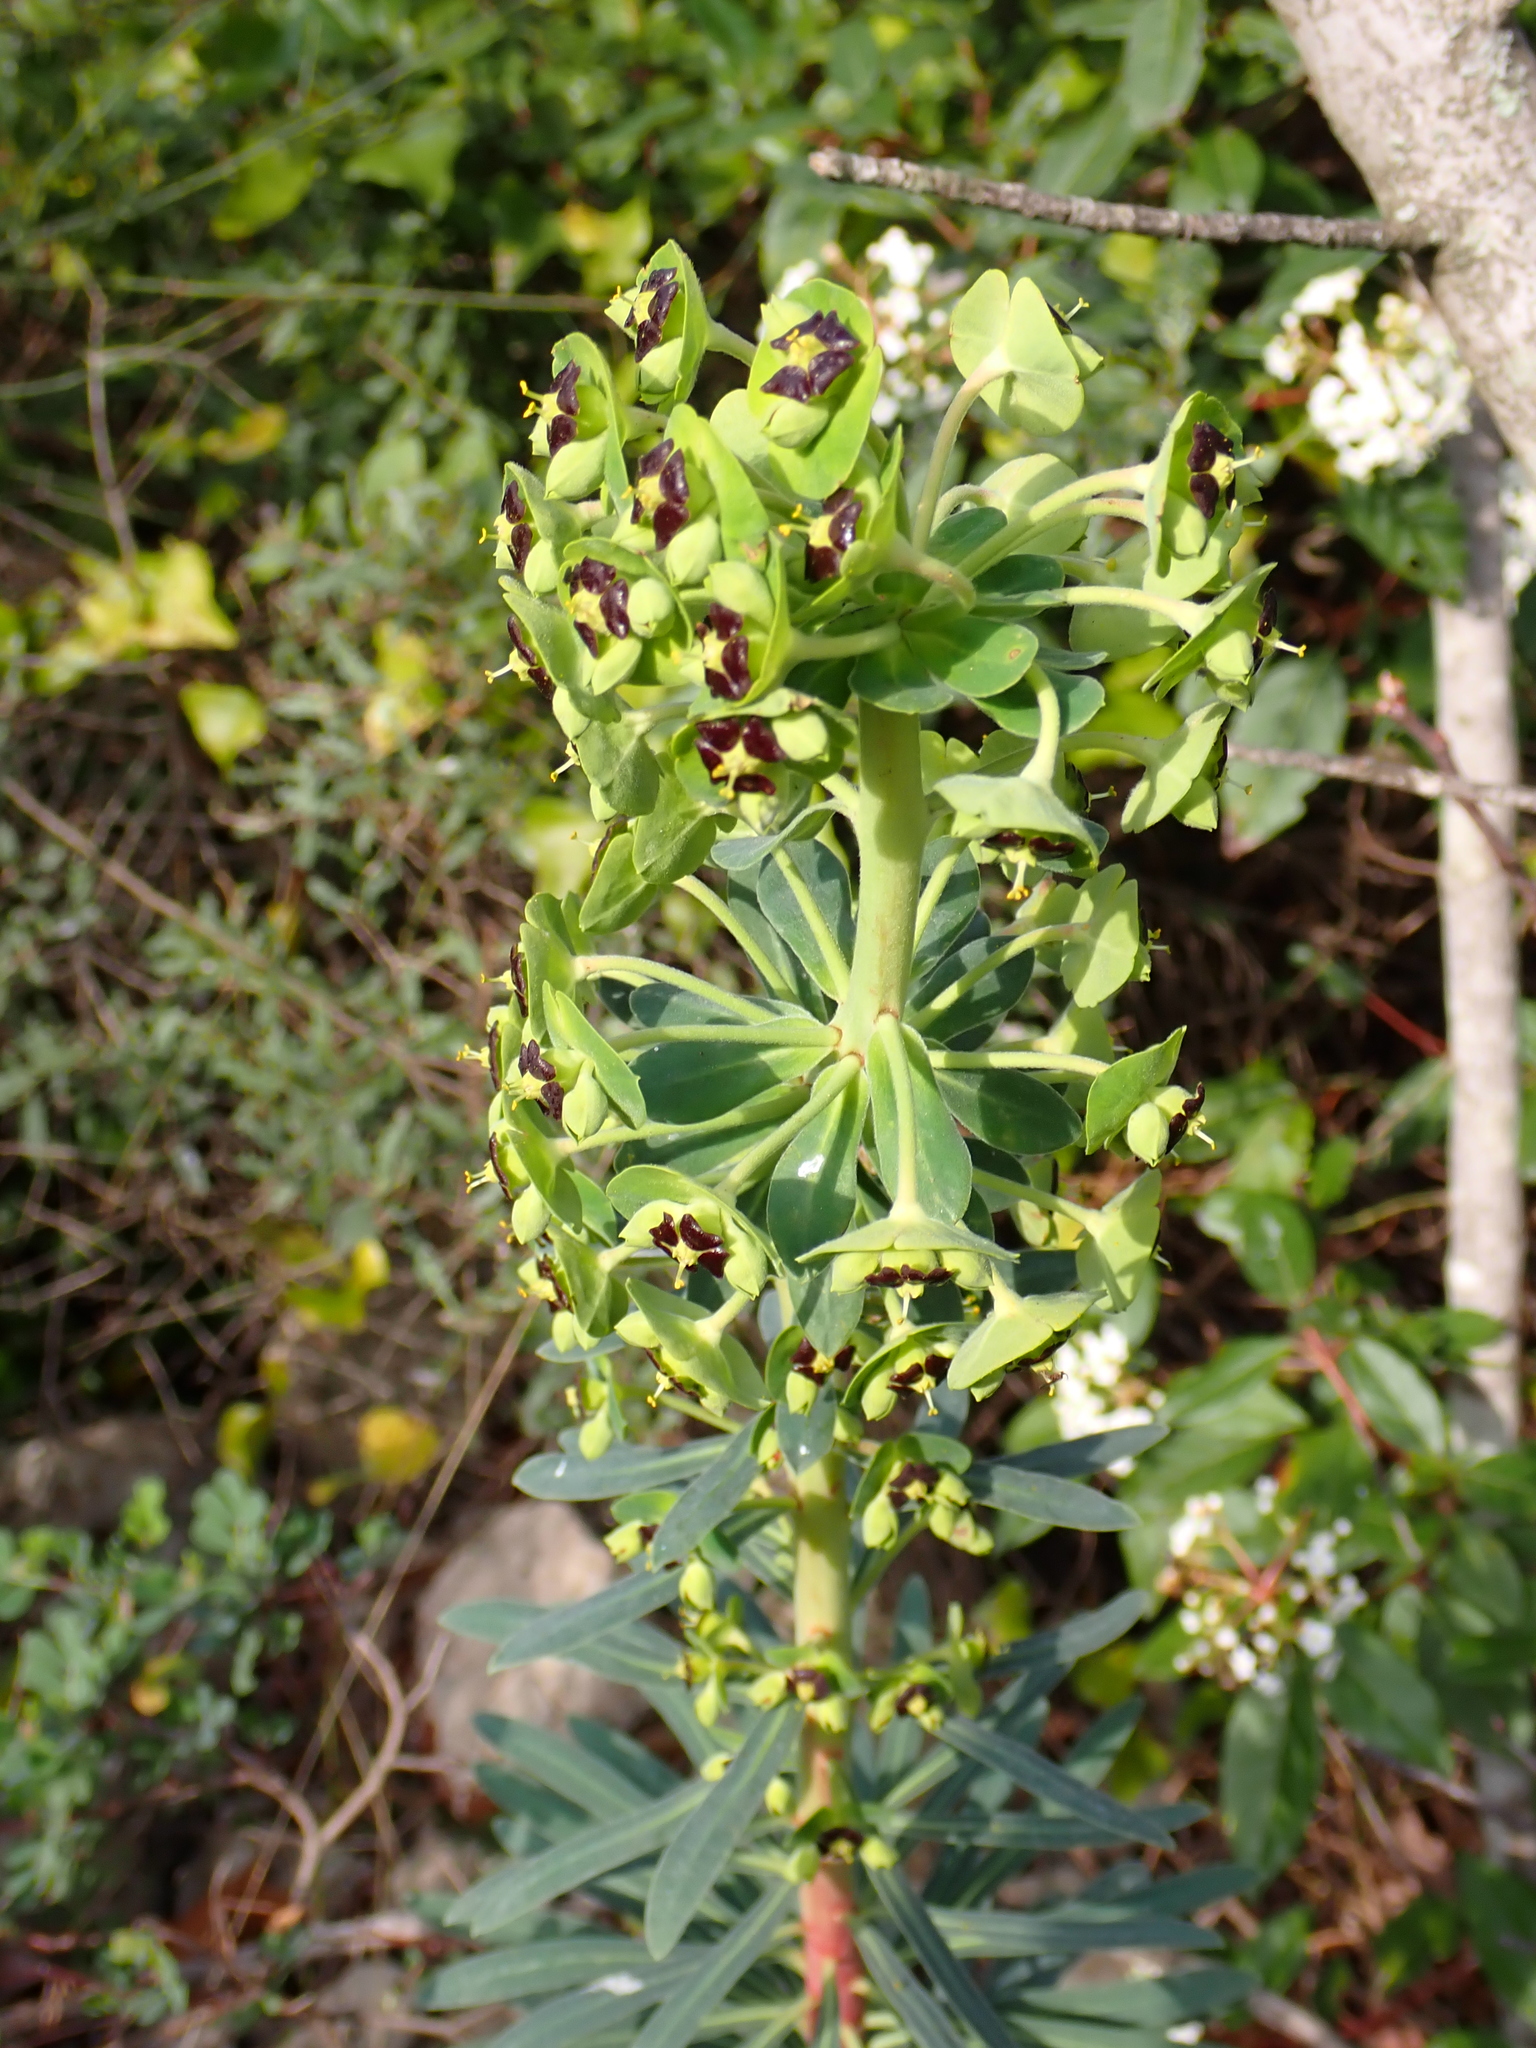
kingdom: Plantae
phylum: Tracheophyta
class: Magnoliopsida
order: Malpighiales
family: Euphorbiaceae
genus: Euphorbia
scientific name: Euphorbia characias
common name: Mediterranean spurge
